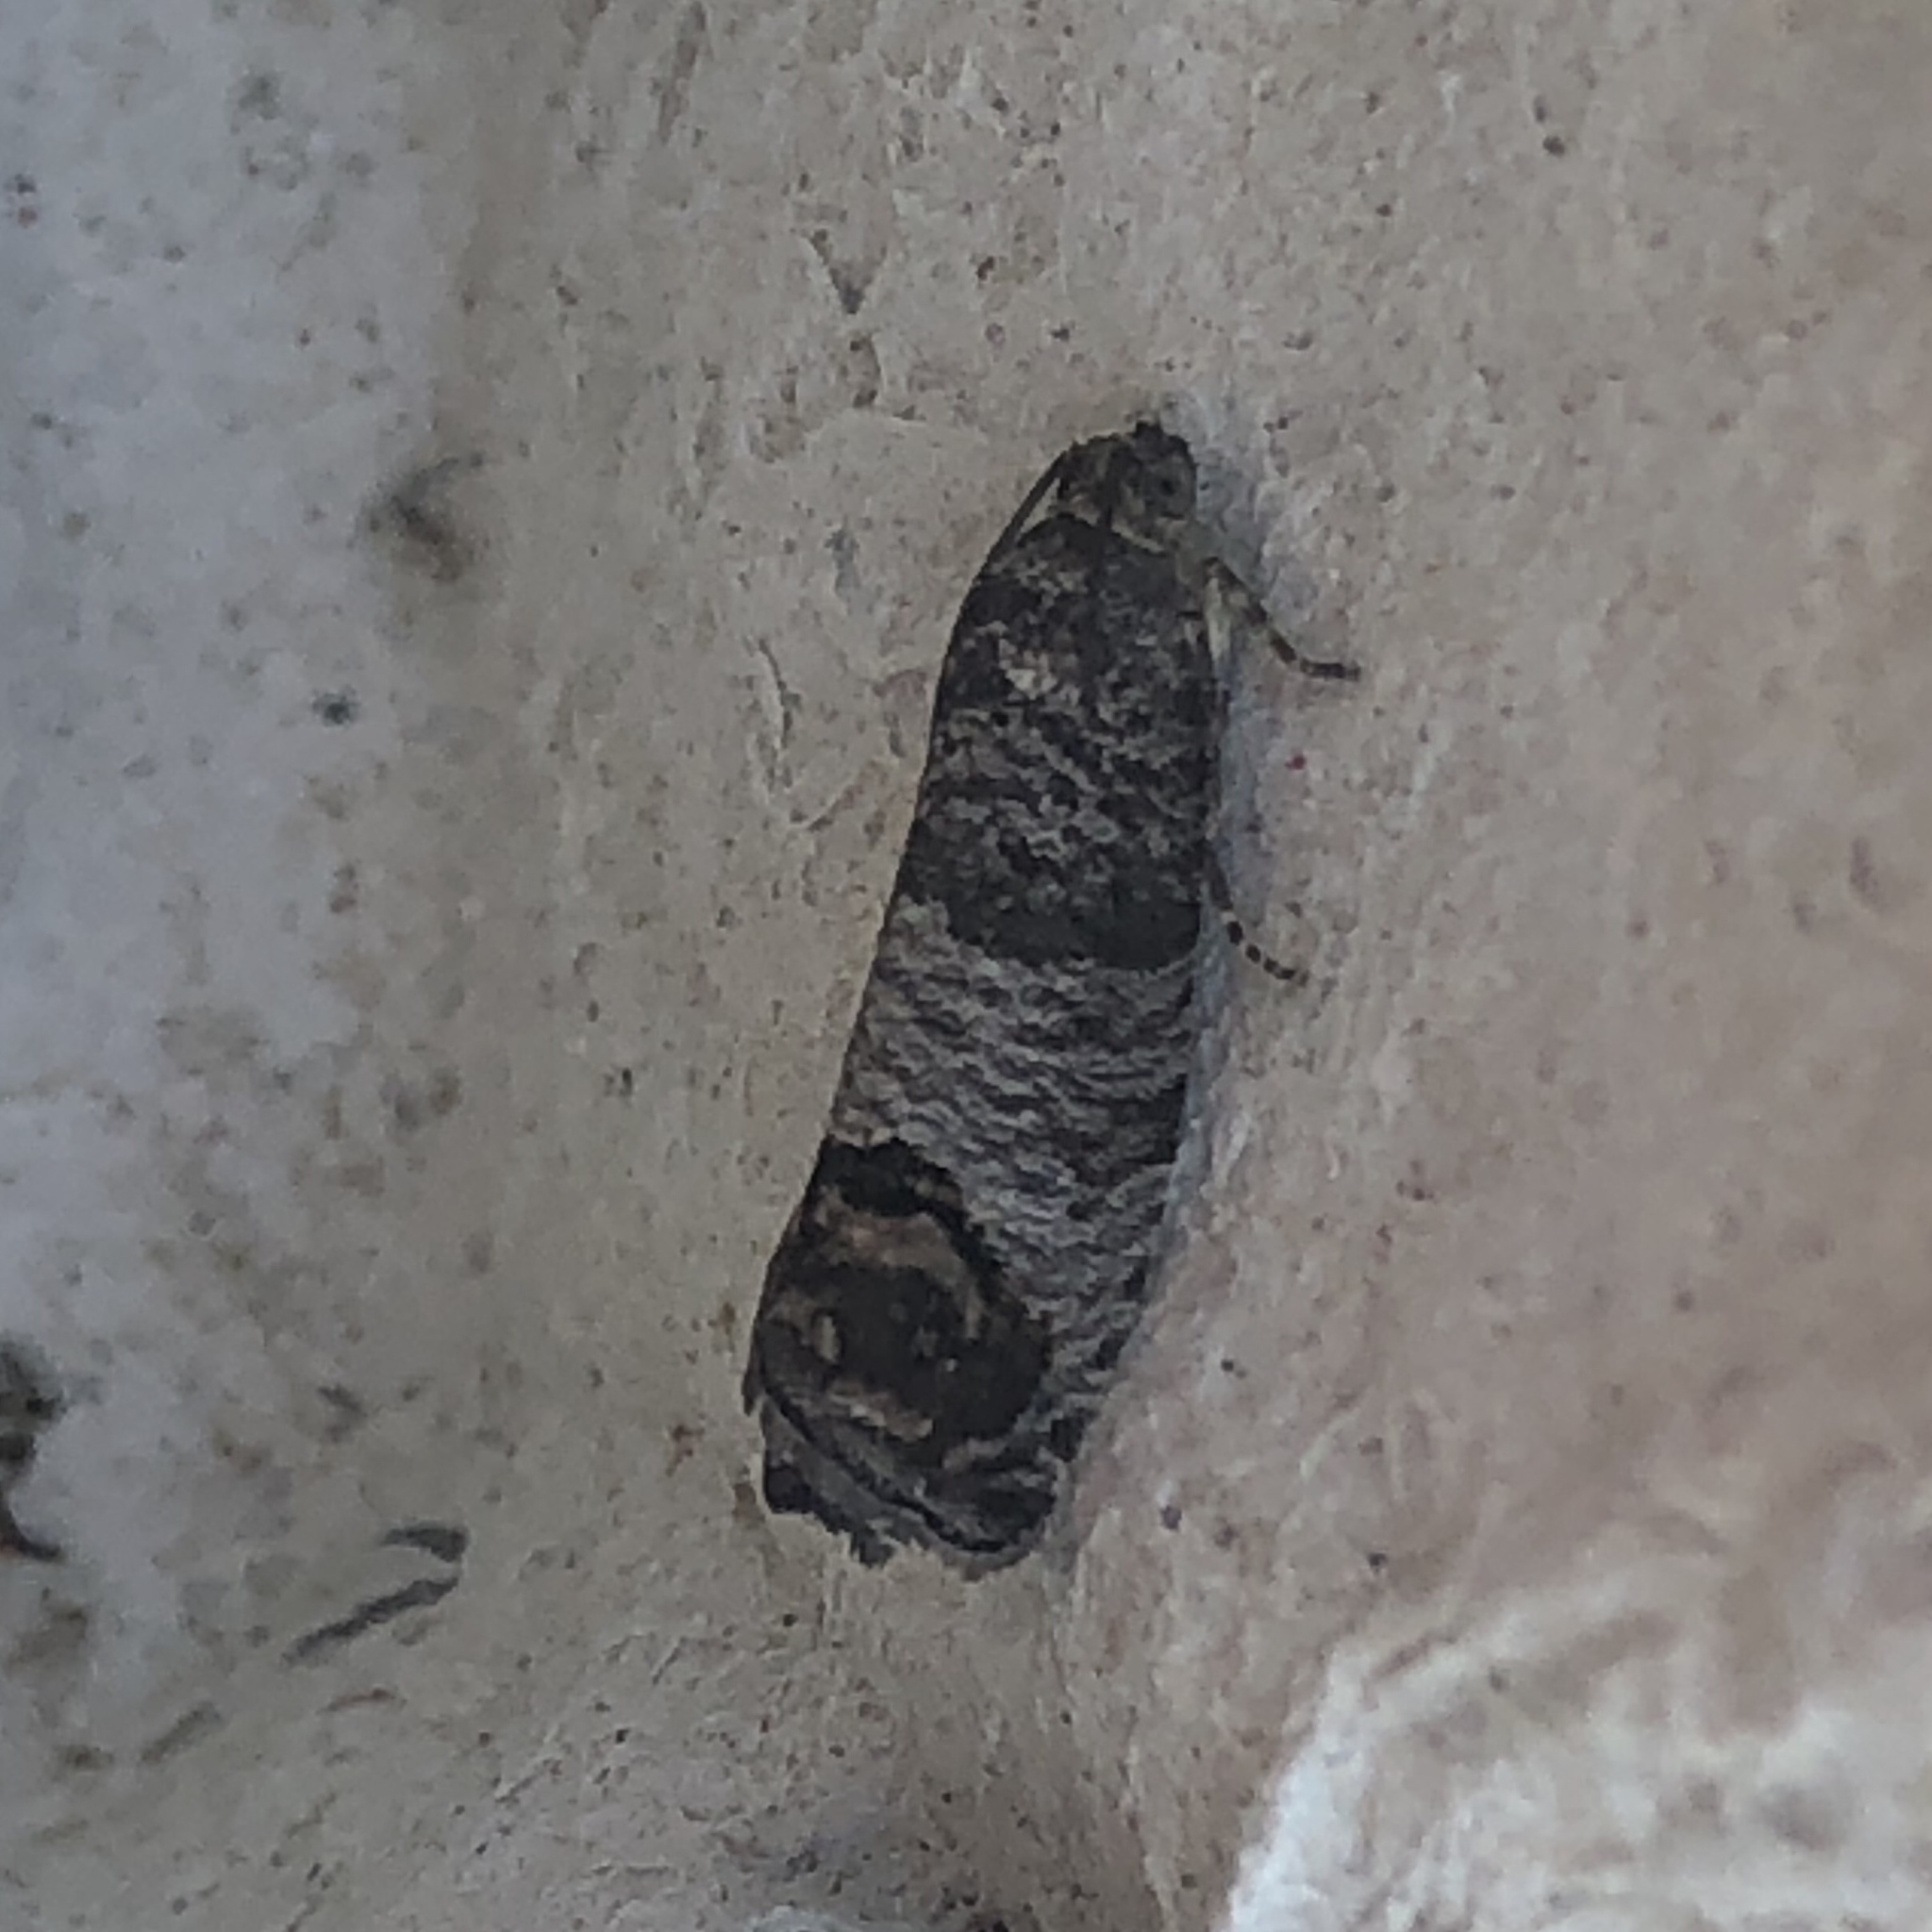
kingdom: Animalia
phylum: Arthropoda
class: Insecta
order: Lepidoptera
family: Tortricidae
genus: Cydia
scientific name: Cydia pomonella
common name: Codling moth
